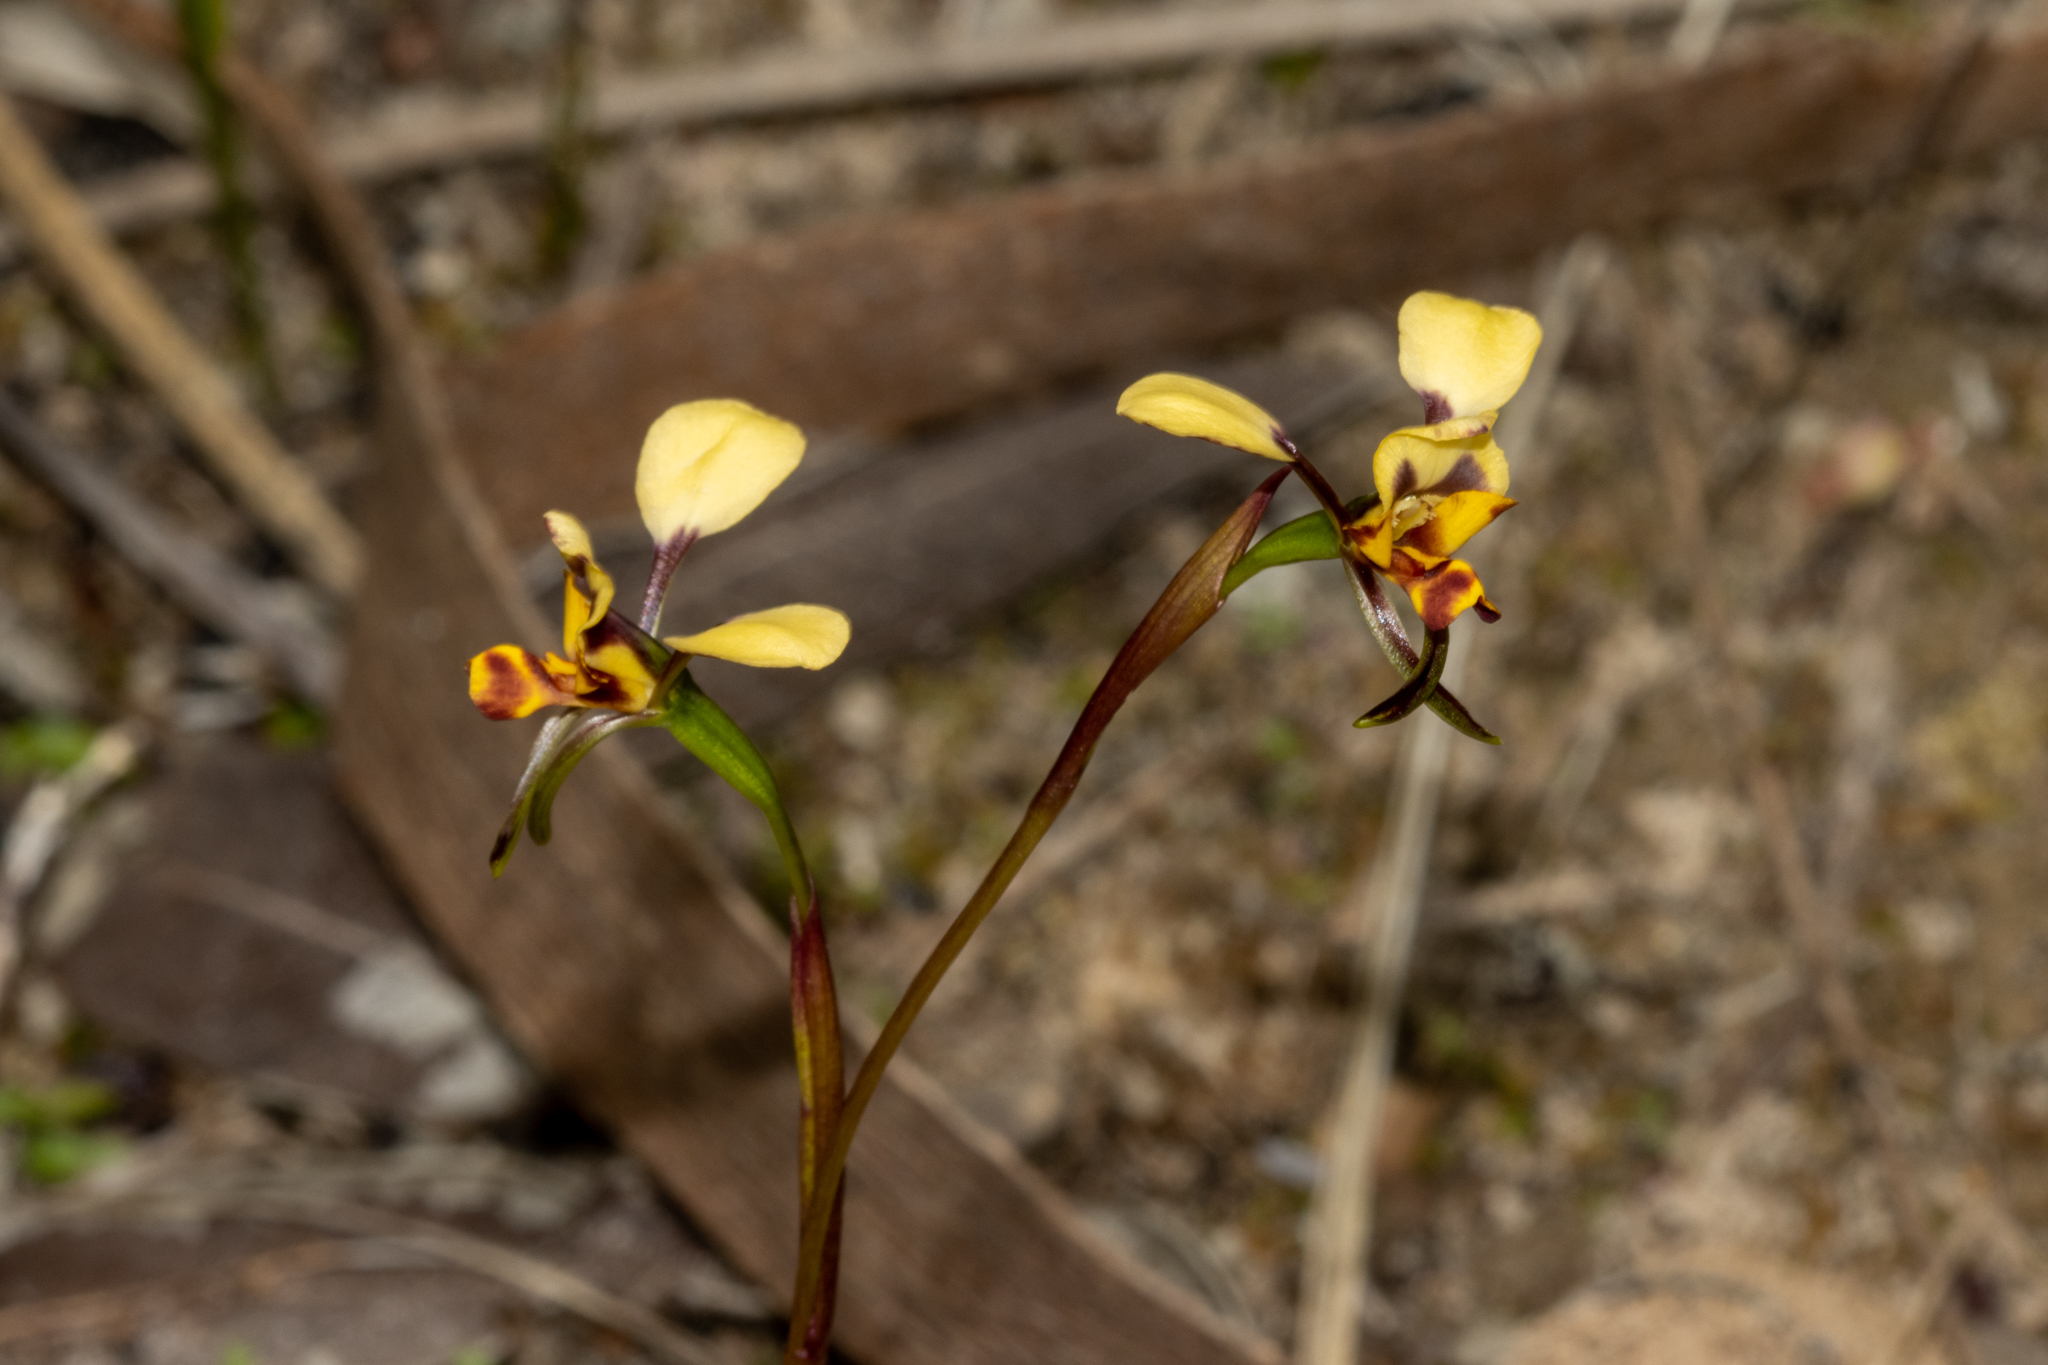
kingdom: Plantae
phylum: Tracheophyta
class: Liliopsida
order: Asparagales
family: Orchidaceae
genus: Diuris
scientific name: Diuris pardina
